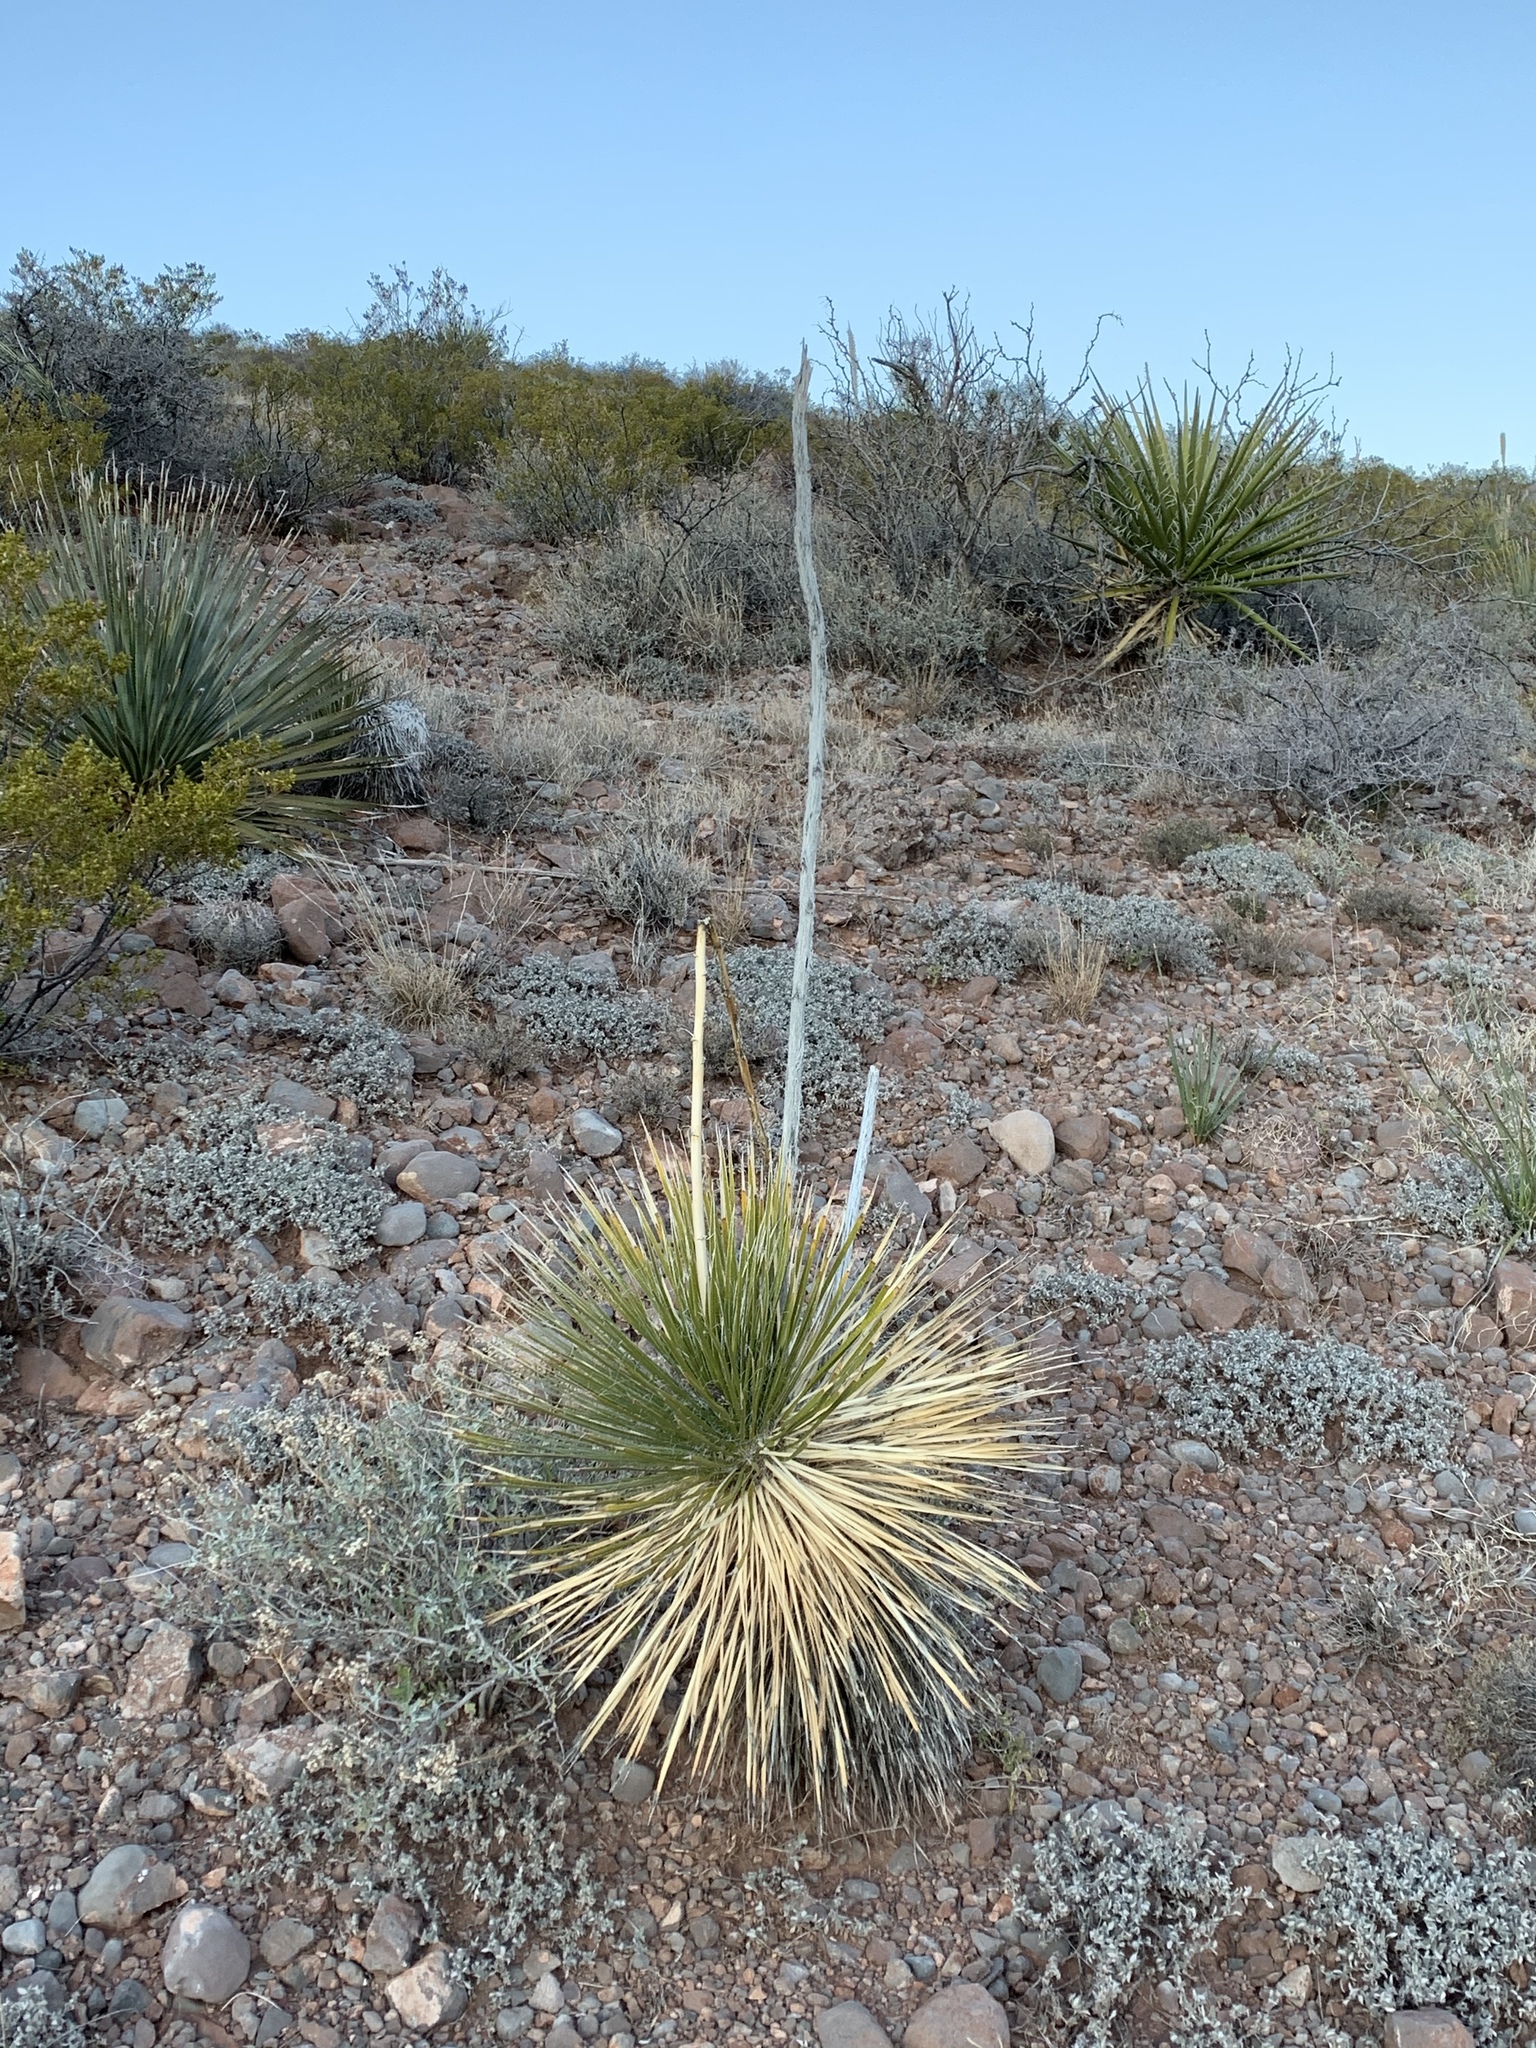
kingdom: Plantae
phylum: Tracheophyta
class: Liliopsida
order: Asparagales
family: Asparagaceae
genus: Yucca
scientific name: Yucca elata
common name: Palmella
